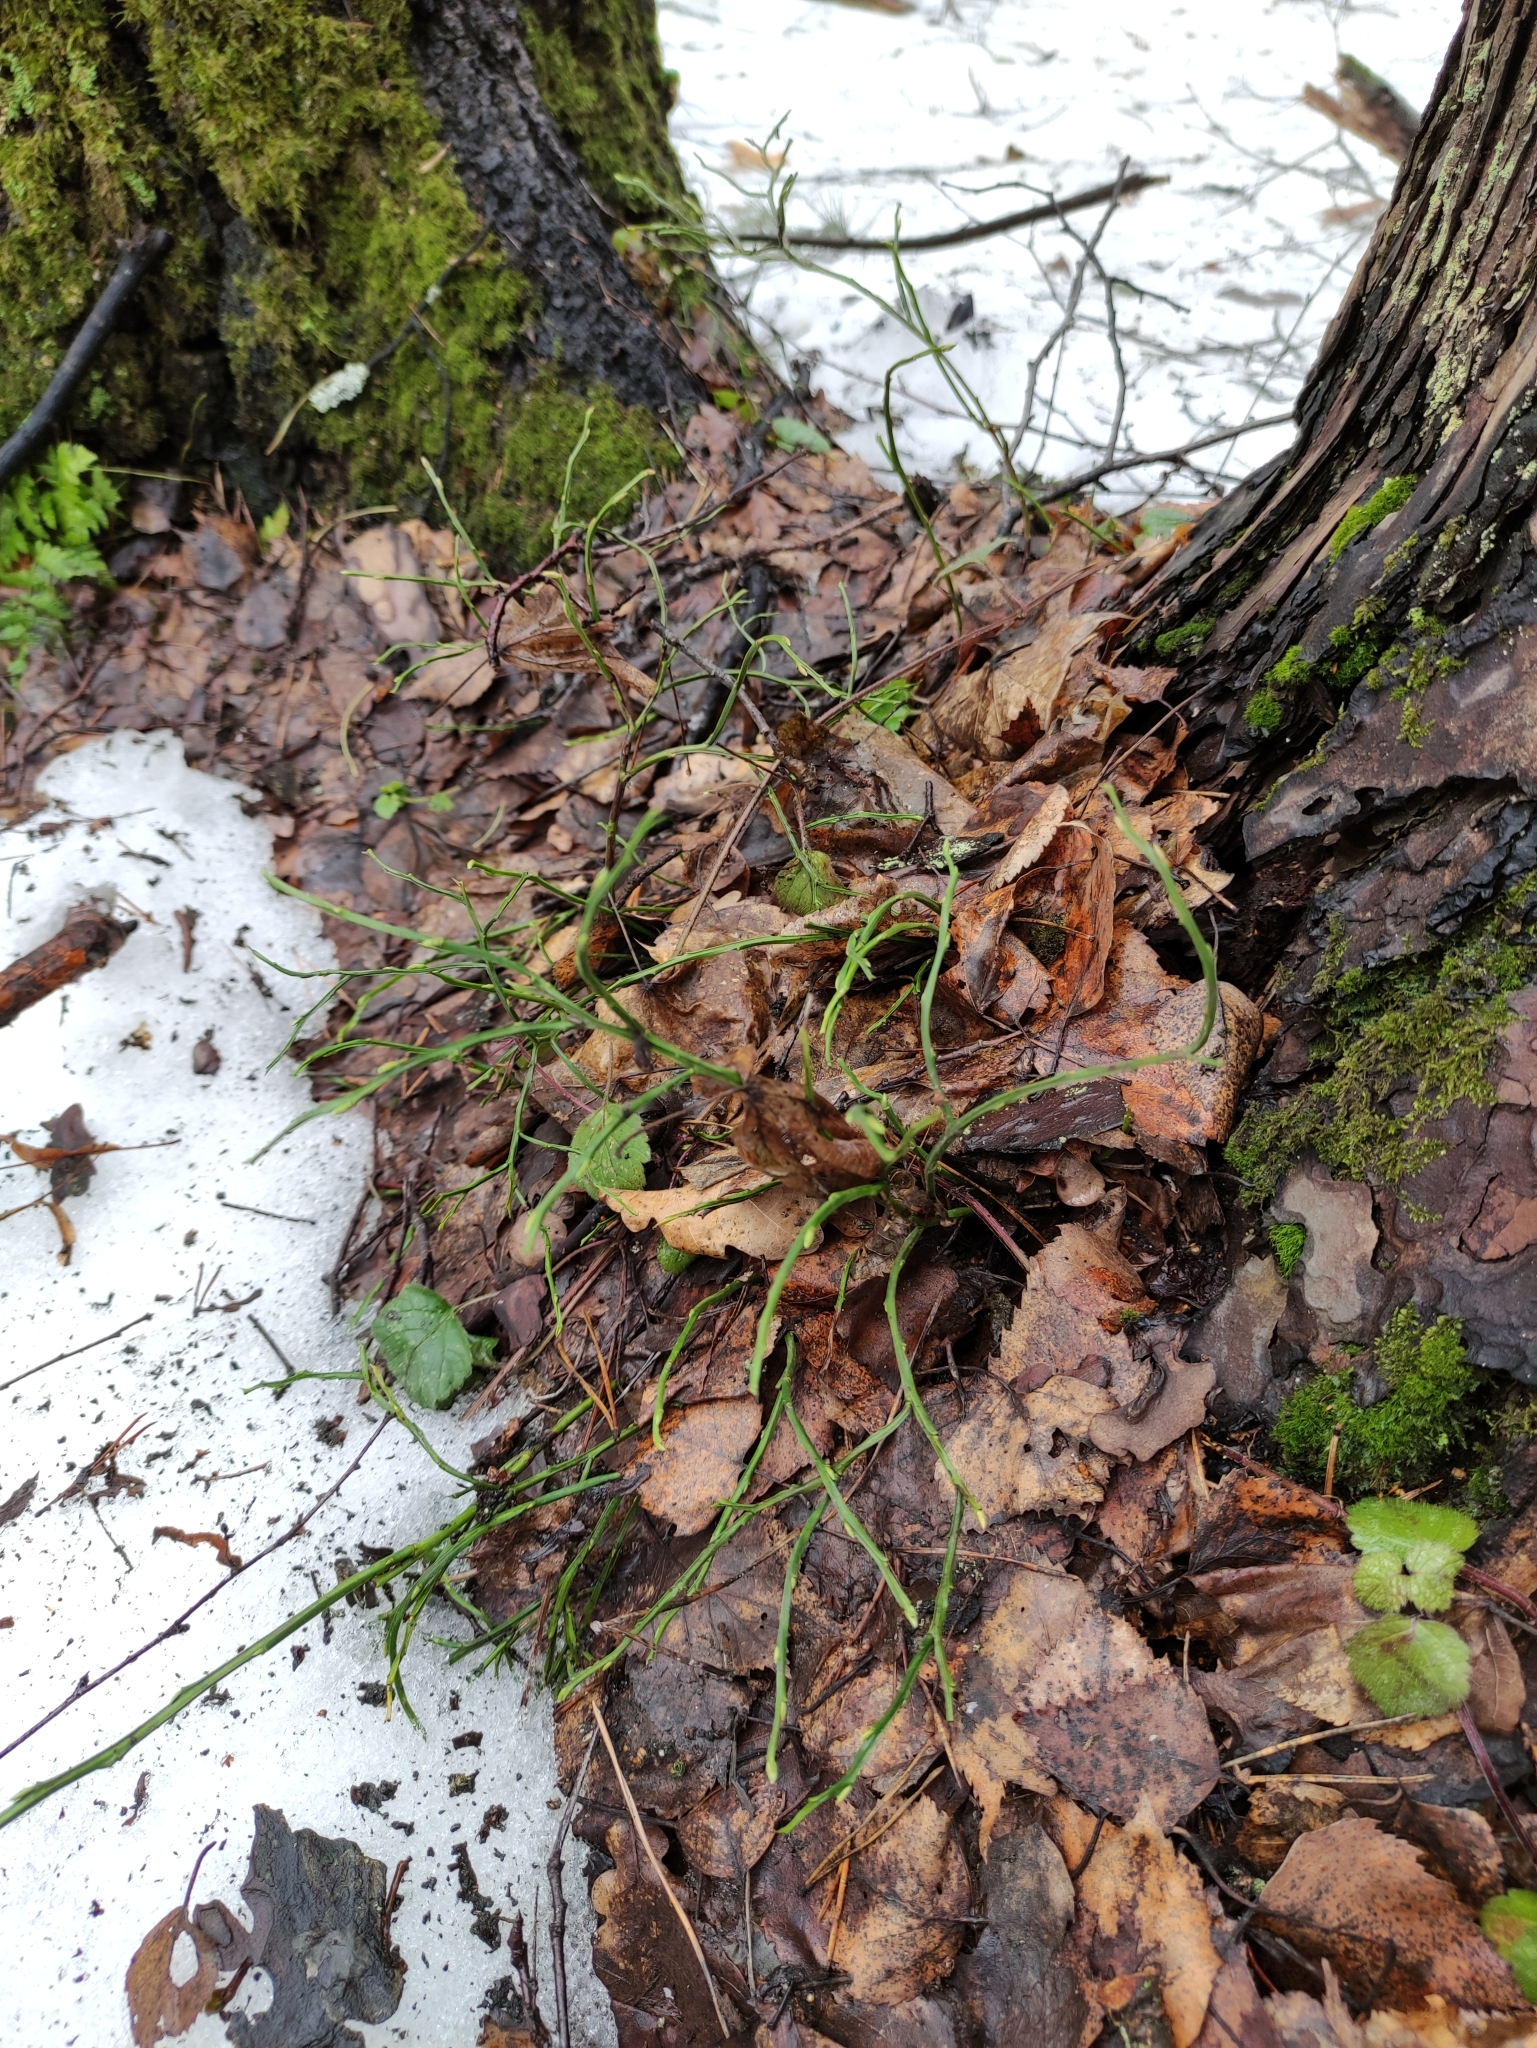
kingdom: Plantae
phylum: Tracheophyta
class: Magnoliopsida
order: Ericales
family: Ericaceae
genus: Vaccinium
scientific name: Vaccinium myrtillus
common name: Bilberry
